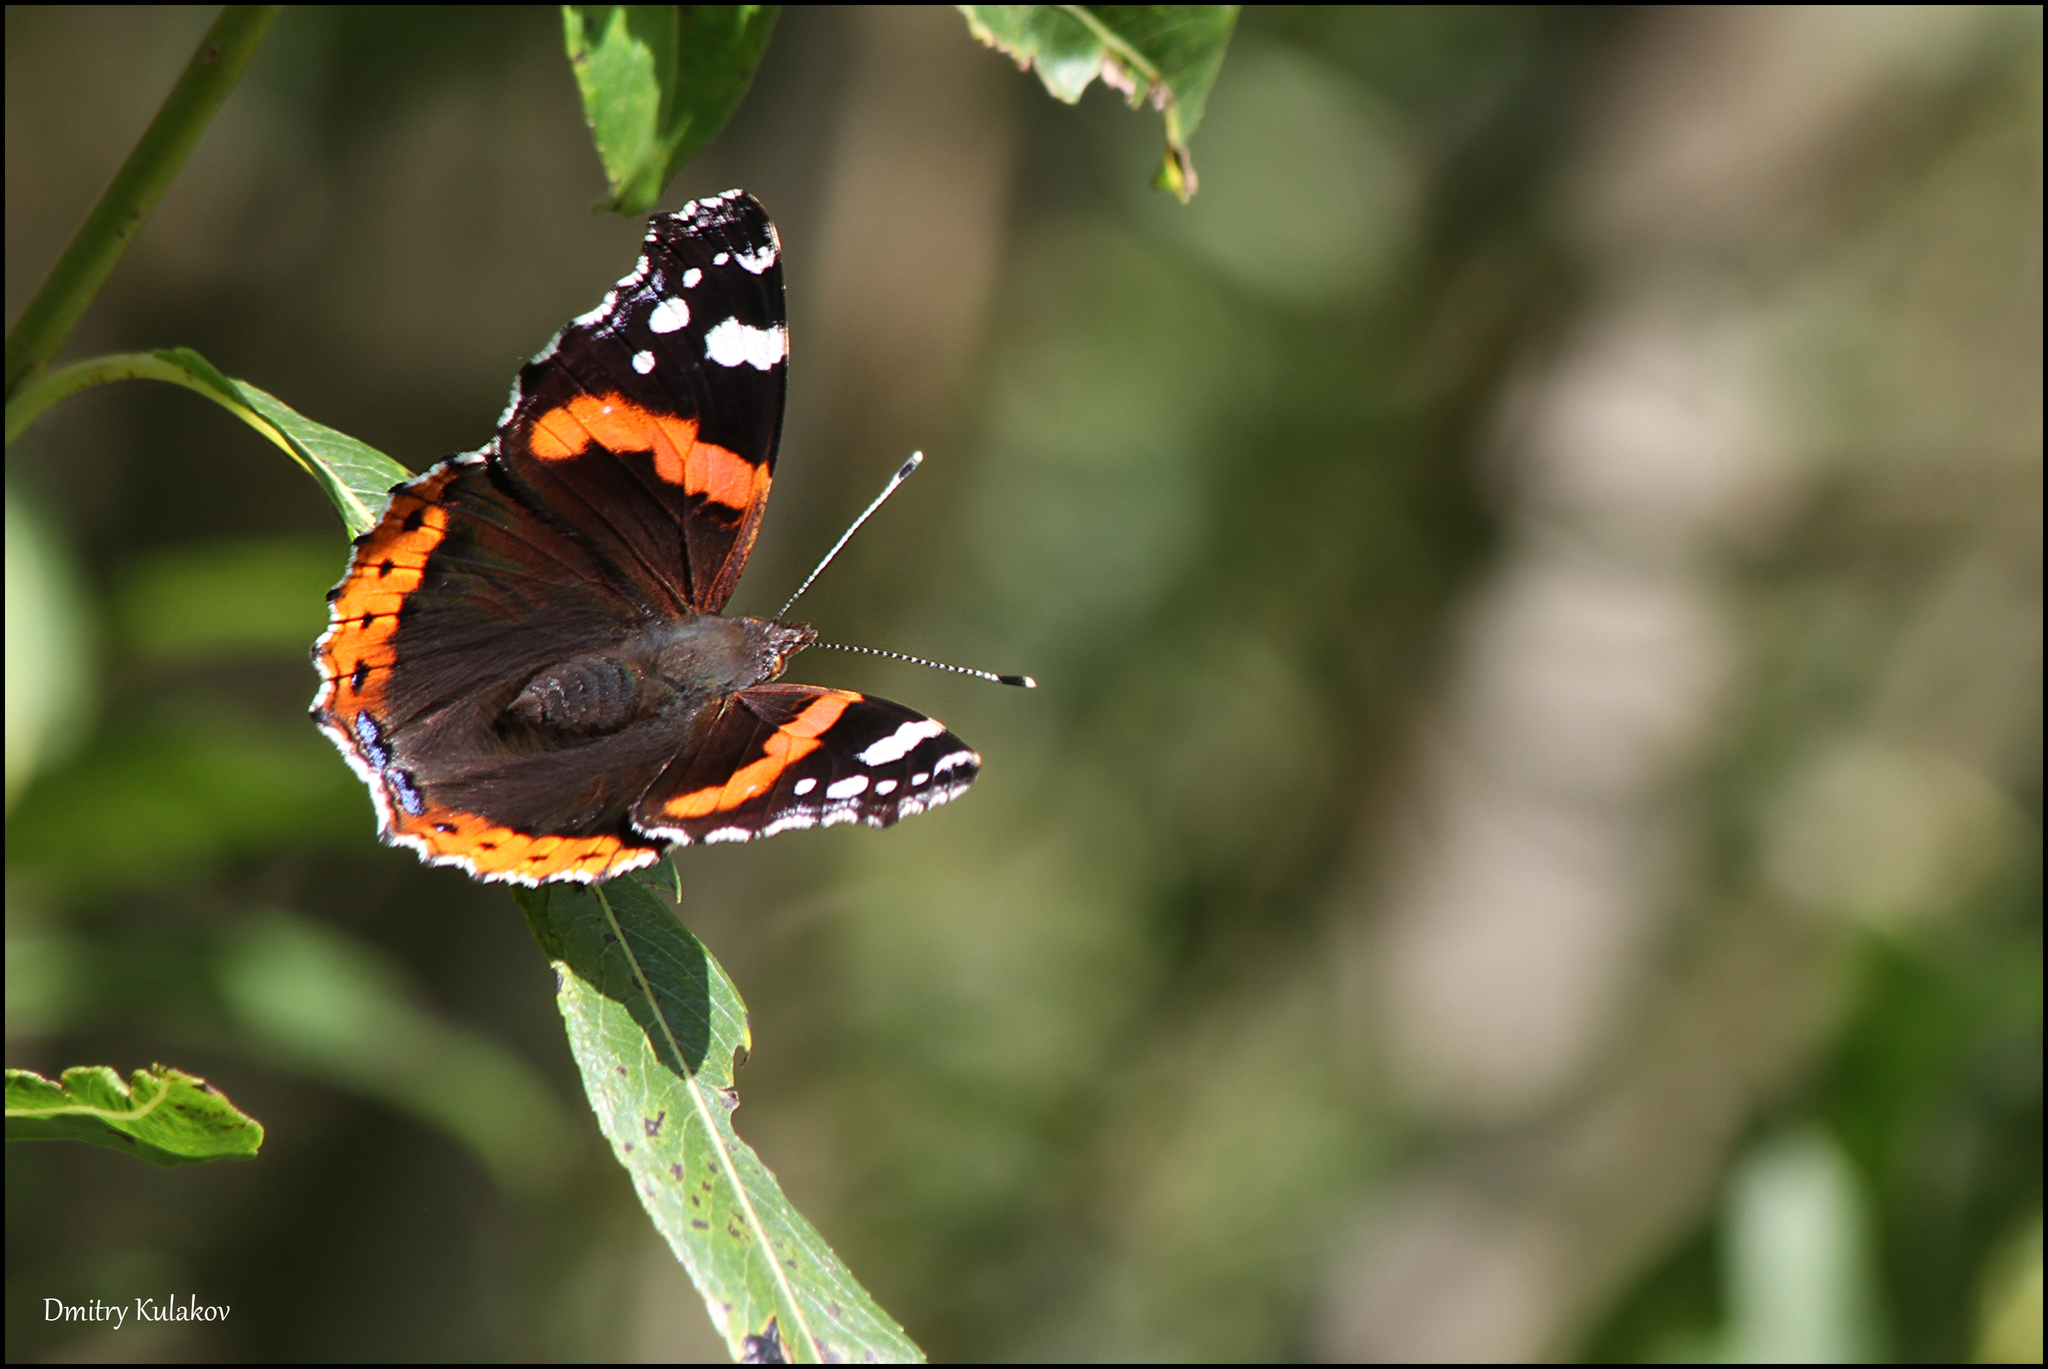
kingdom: Animalia
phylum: Arthropoda
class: Insecta
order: Lepidoptera
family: Nymphalidae
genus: Vanessa
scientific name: Vanessa atalanta
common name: Red admiral
